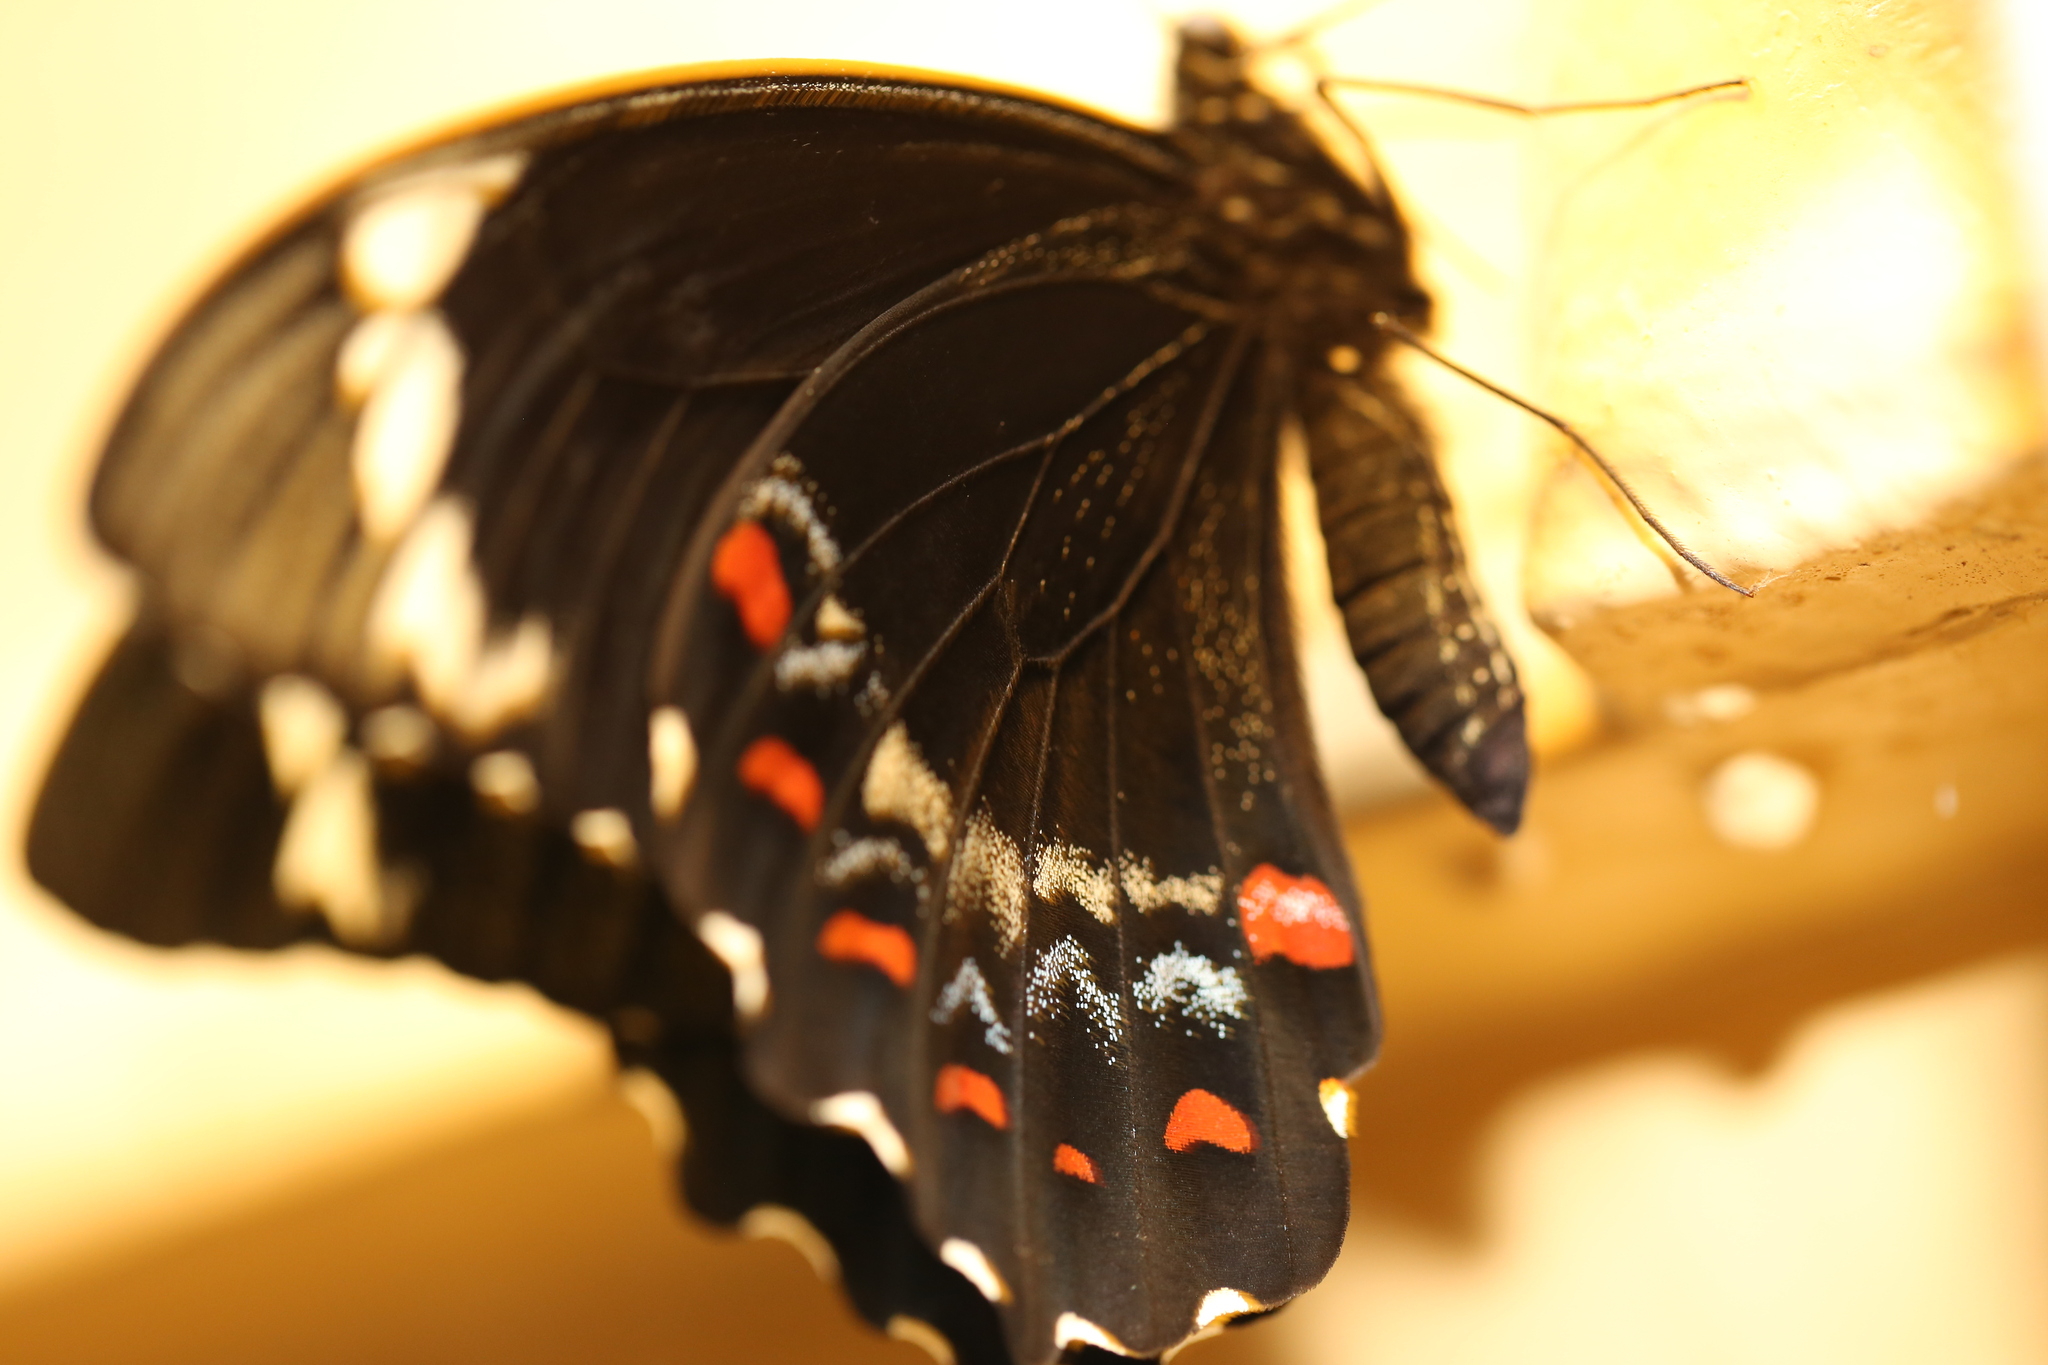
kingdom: Animalia
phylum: Arthropoda
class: Insecta
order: Lepidoptera
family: Papilionidae
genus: Papilio
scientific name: Papilio aegeus
